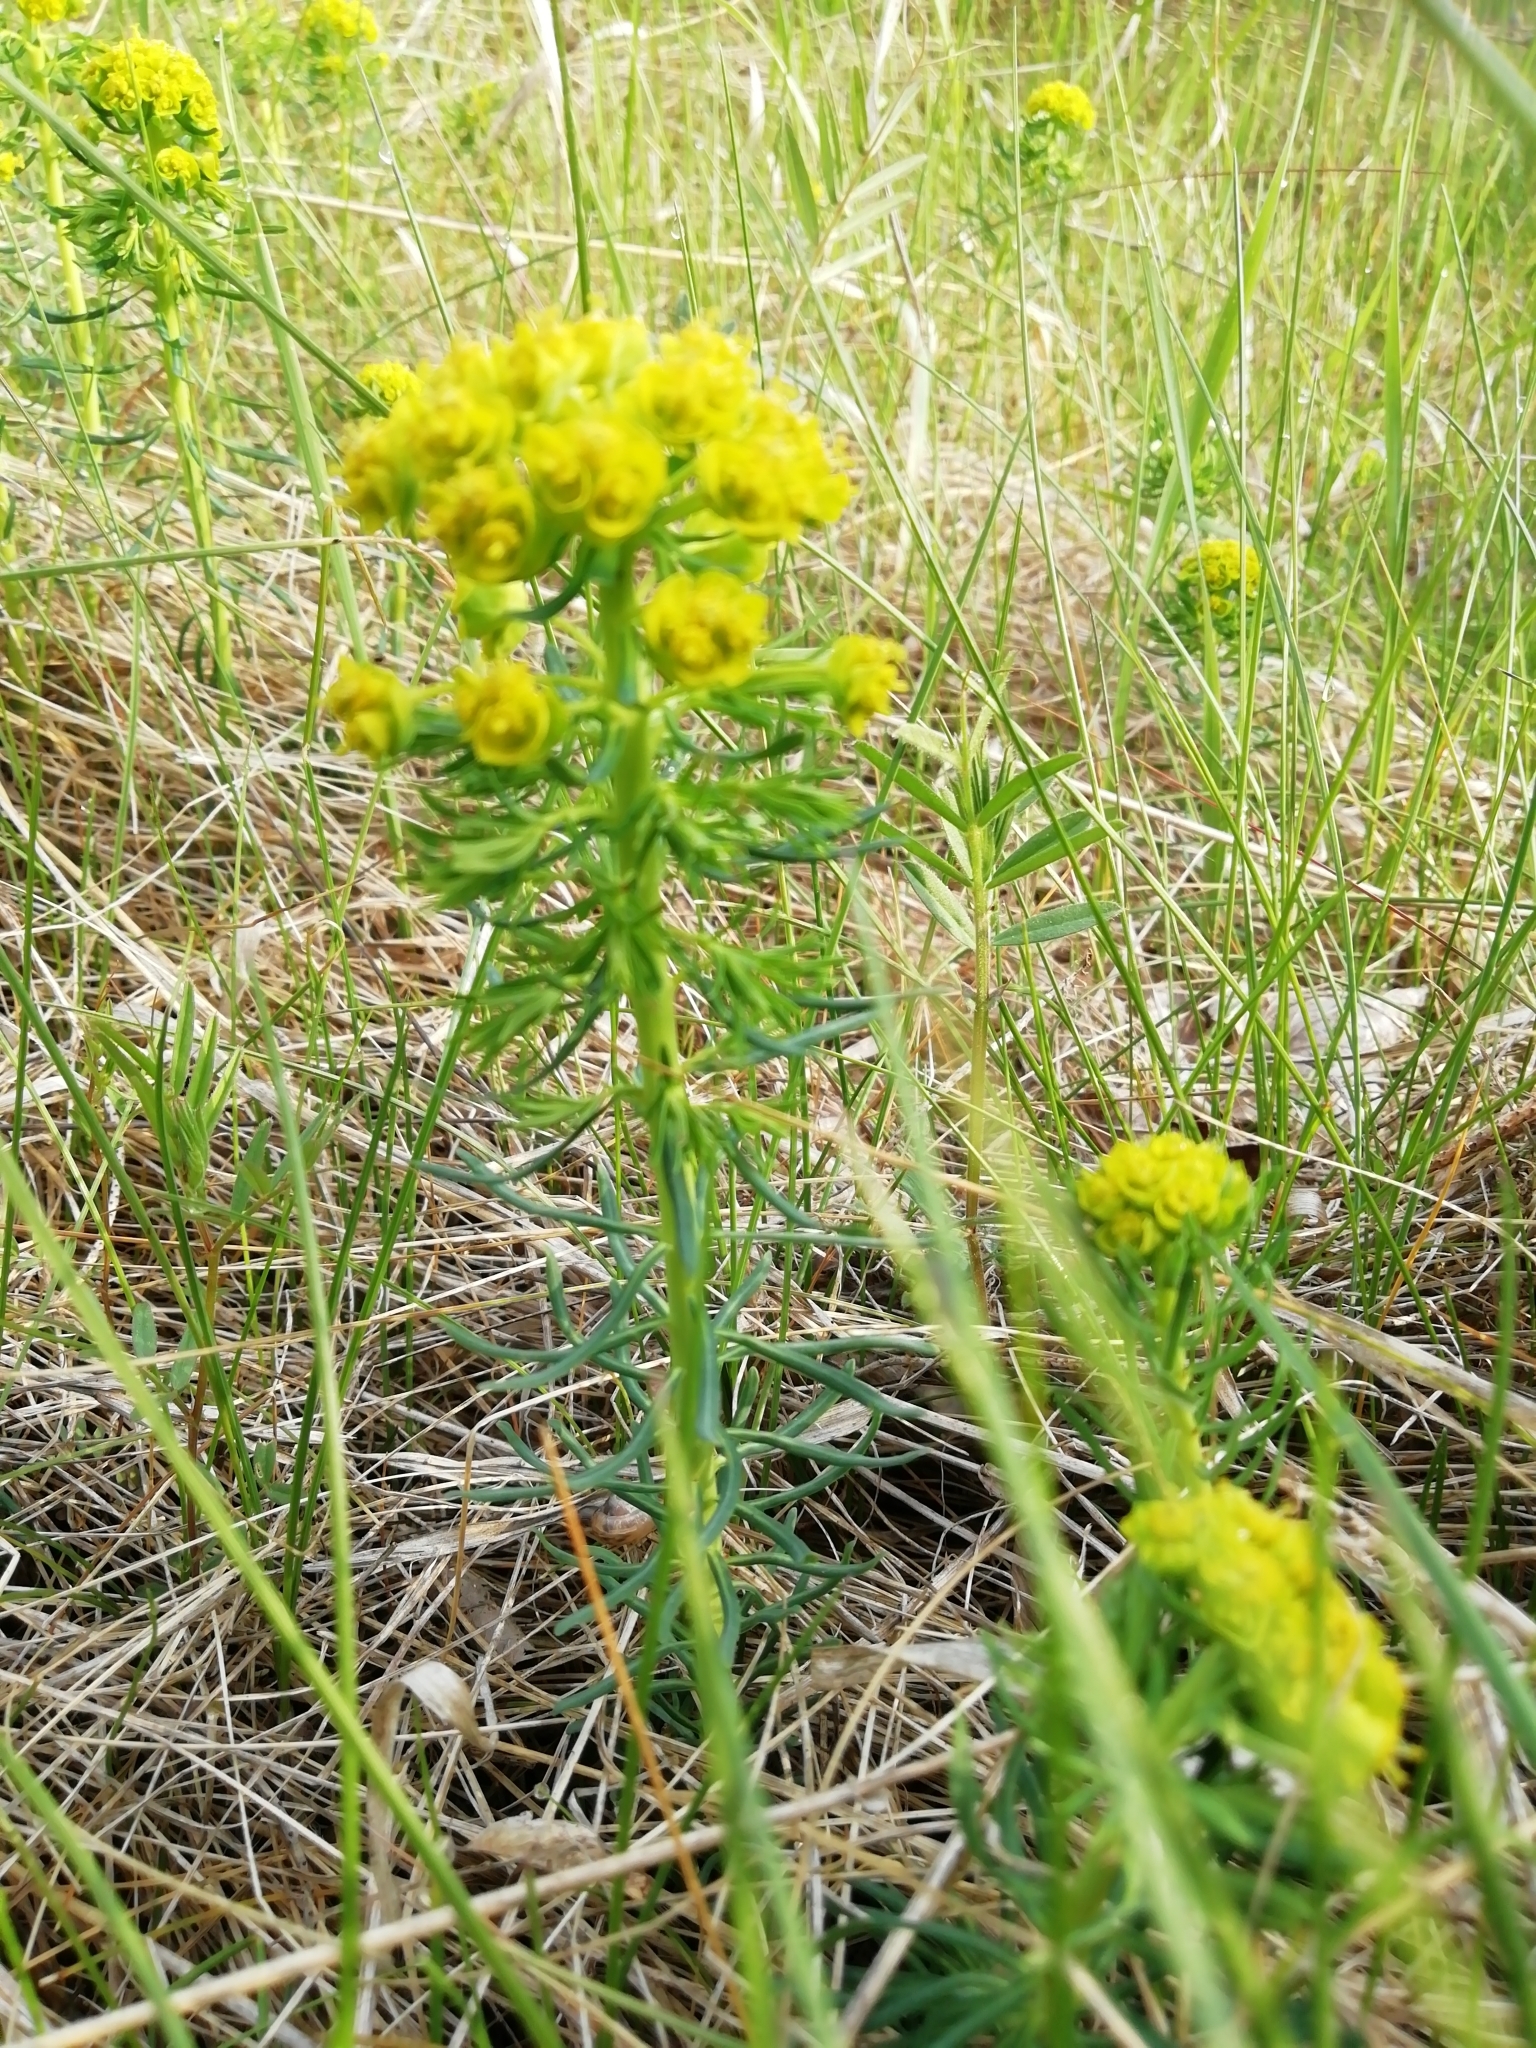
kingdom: Plantae
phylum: Tracheophyta
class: Magnoliopsida
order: Malpighiales
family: Euphorbiaceae
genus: Euphorbia
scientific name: Euphorbia cyparissias
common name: Cypress spurge
